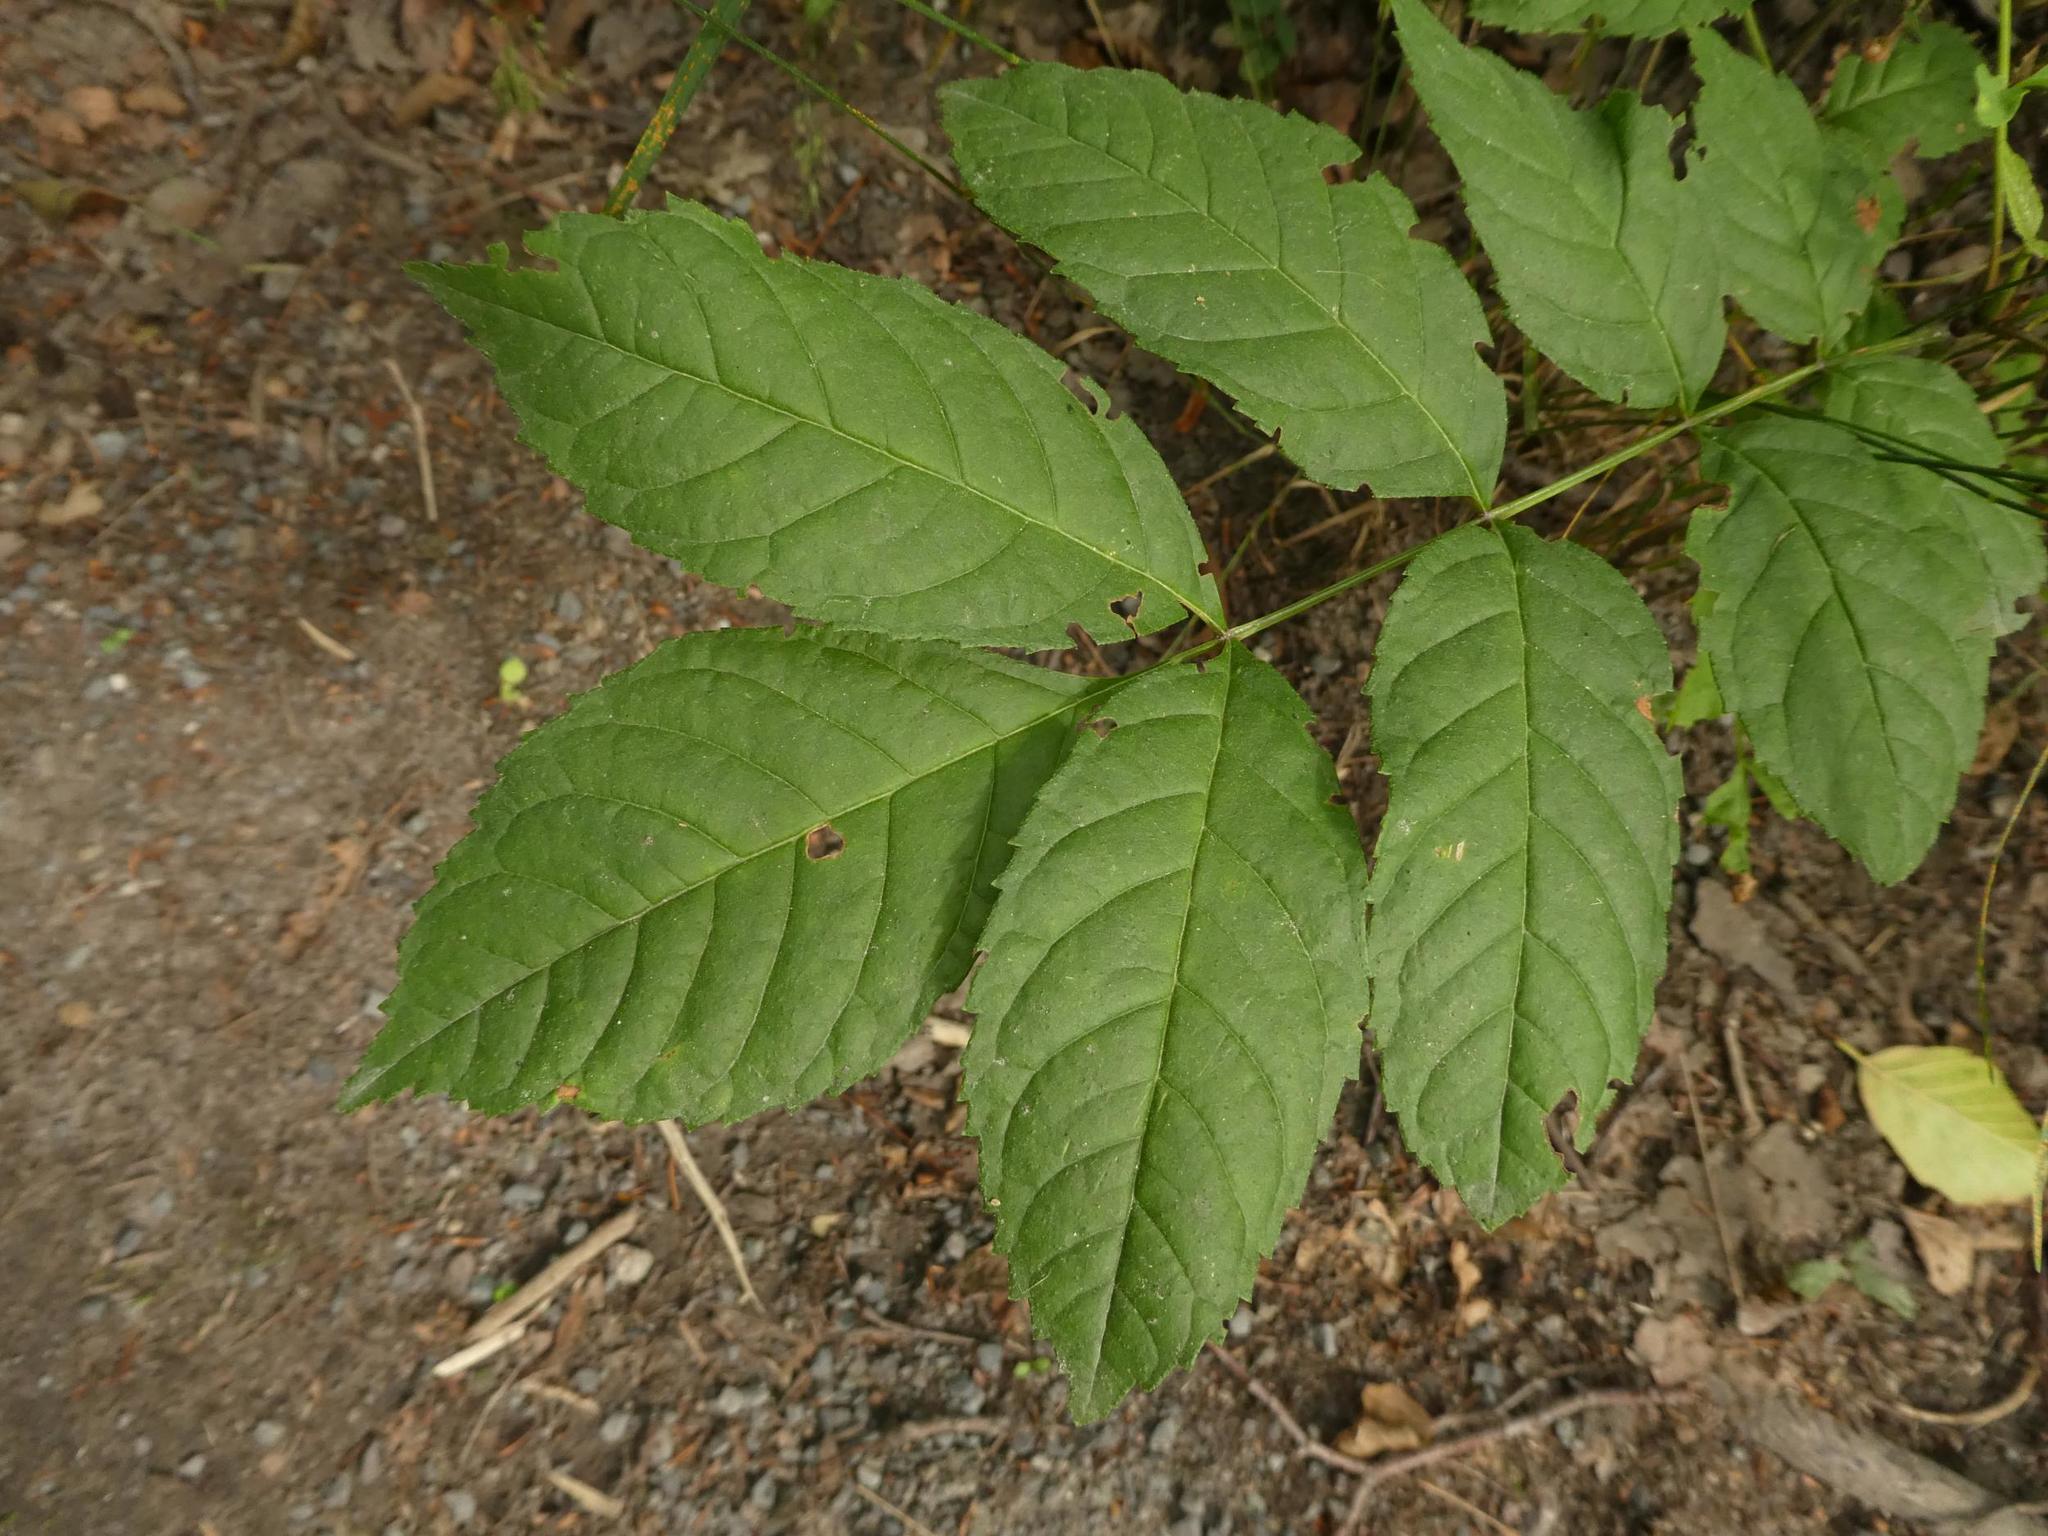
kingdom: Plantae
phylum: Tracheophyta
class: Magnoliopsida
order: Lamiales
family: Oleaceae
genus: Fraxinus
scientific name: Fraxinus excelsior
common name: European ash
